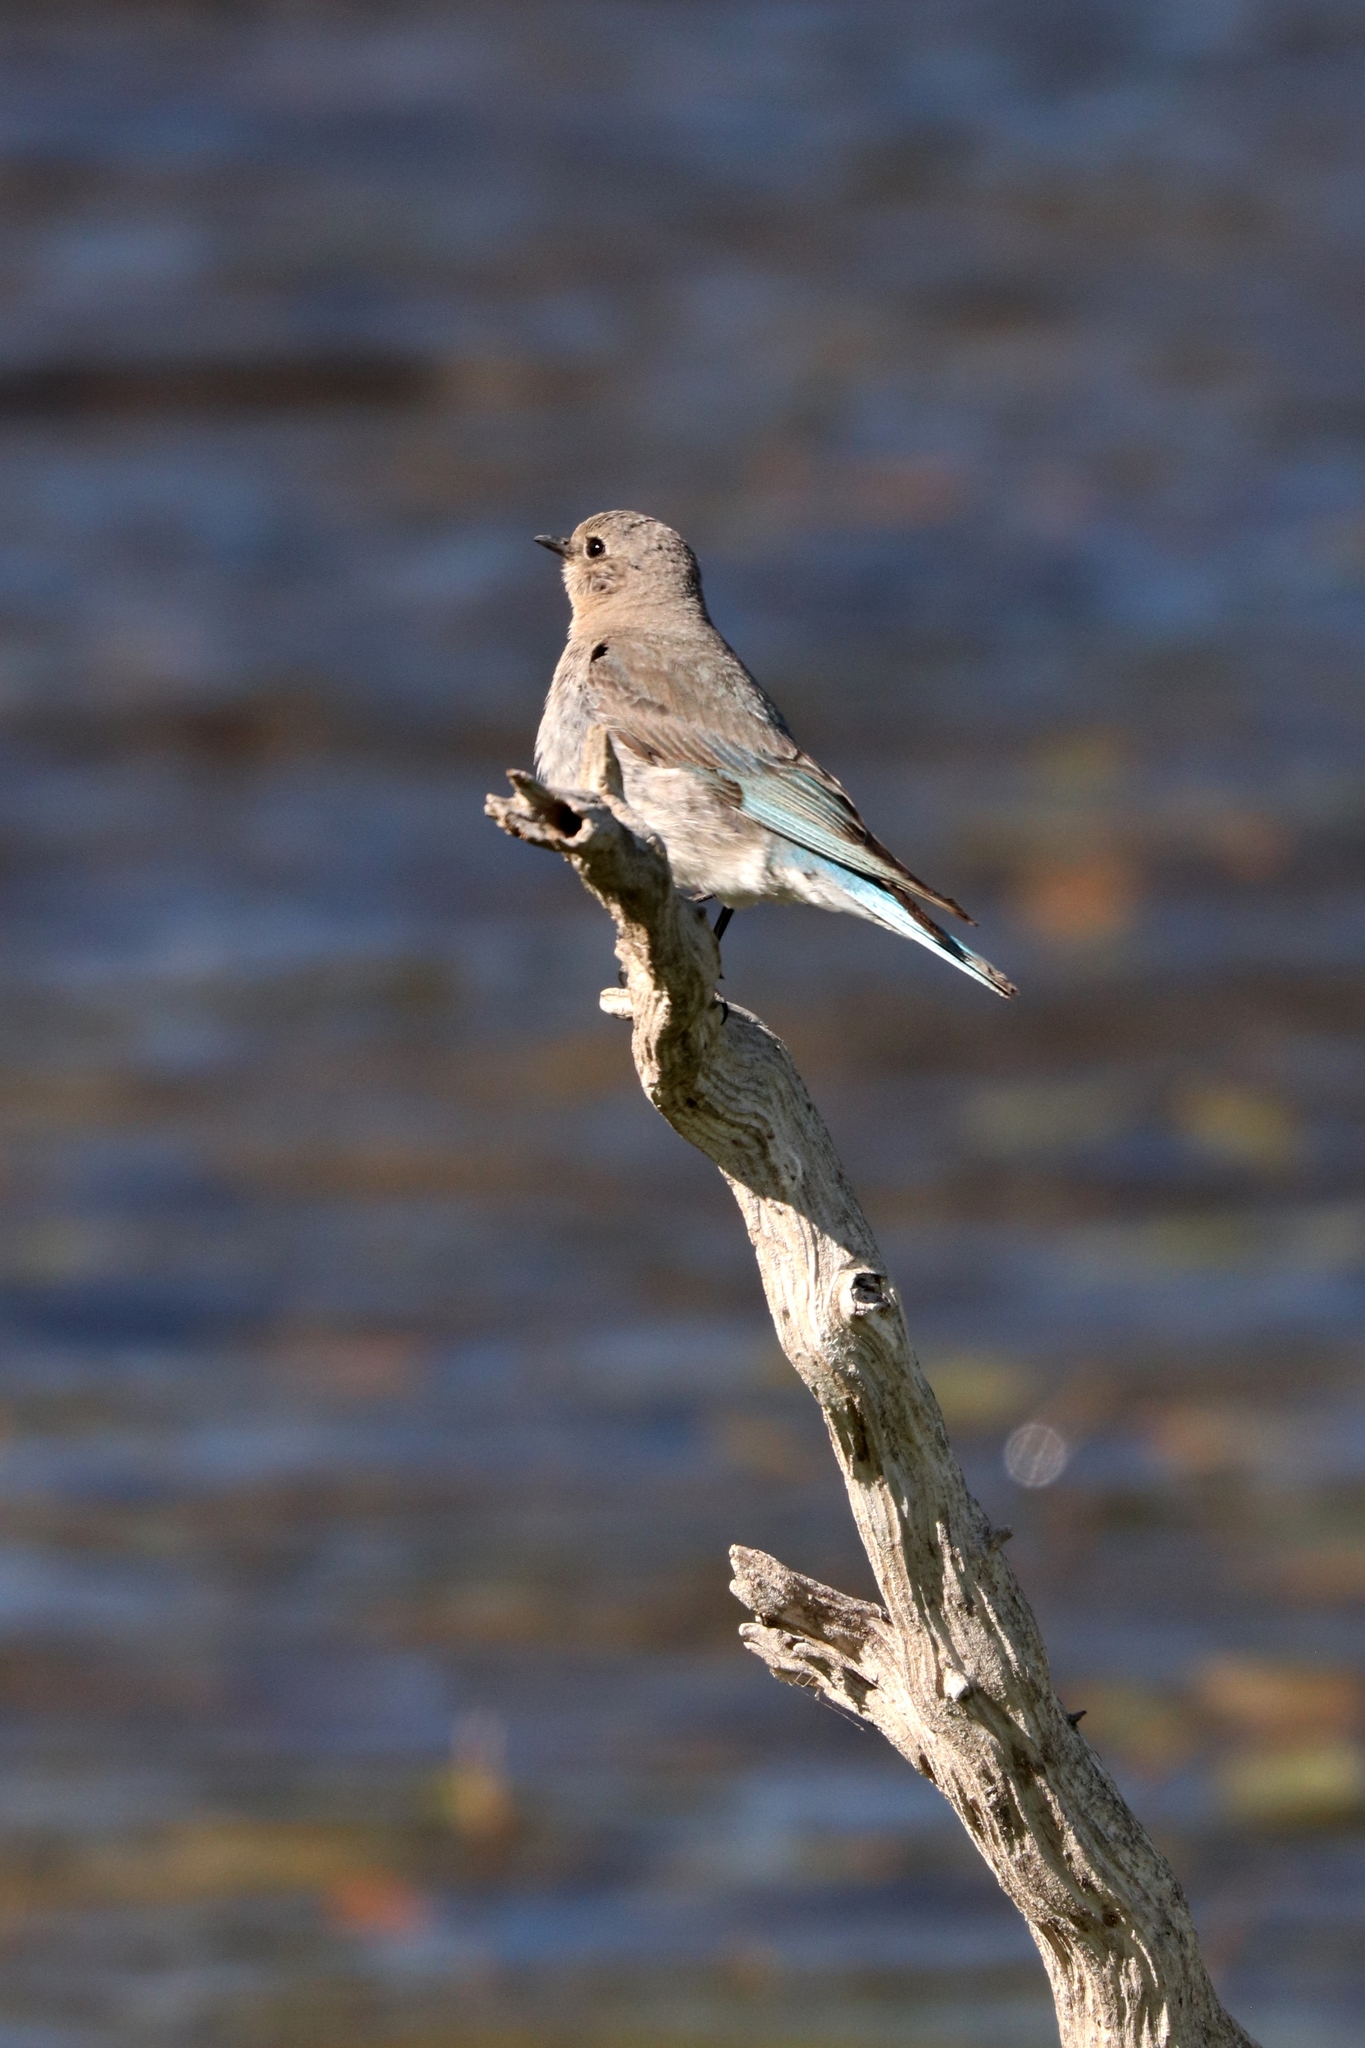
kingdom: Animalia
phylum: Chordata
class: Aves
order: Passeriformes
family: Turdidae
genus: Sialia
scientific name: Sialia currucoides
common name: Mountain bluebird
